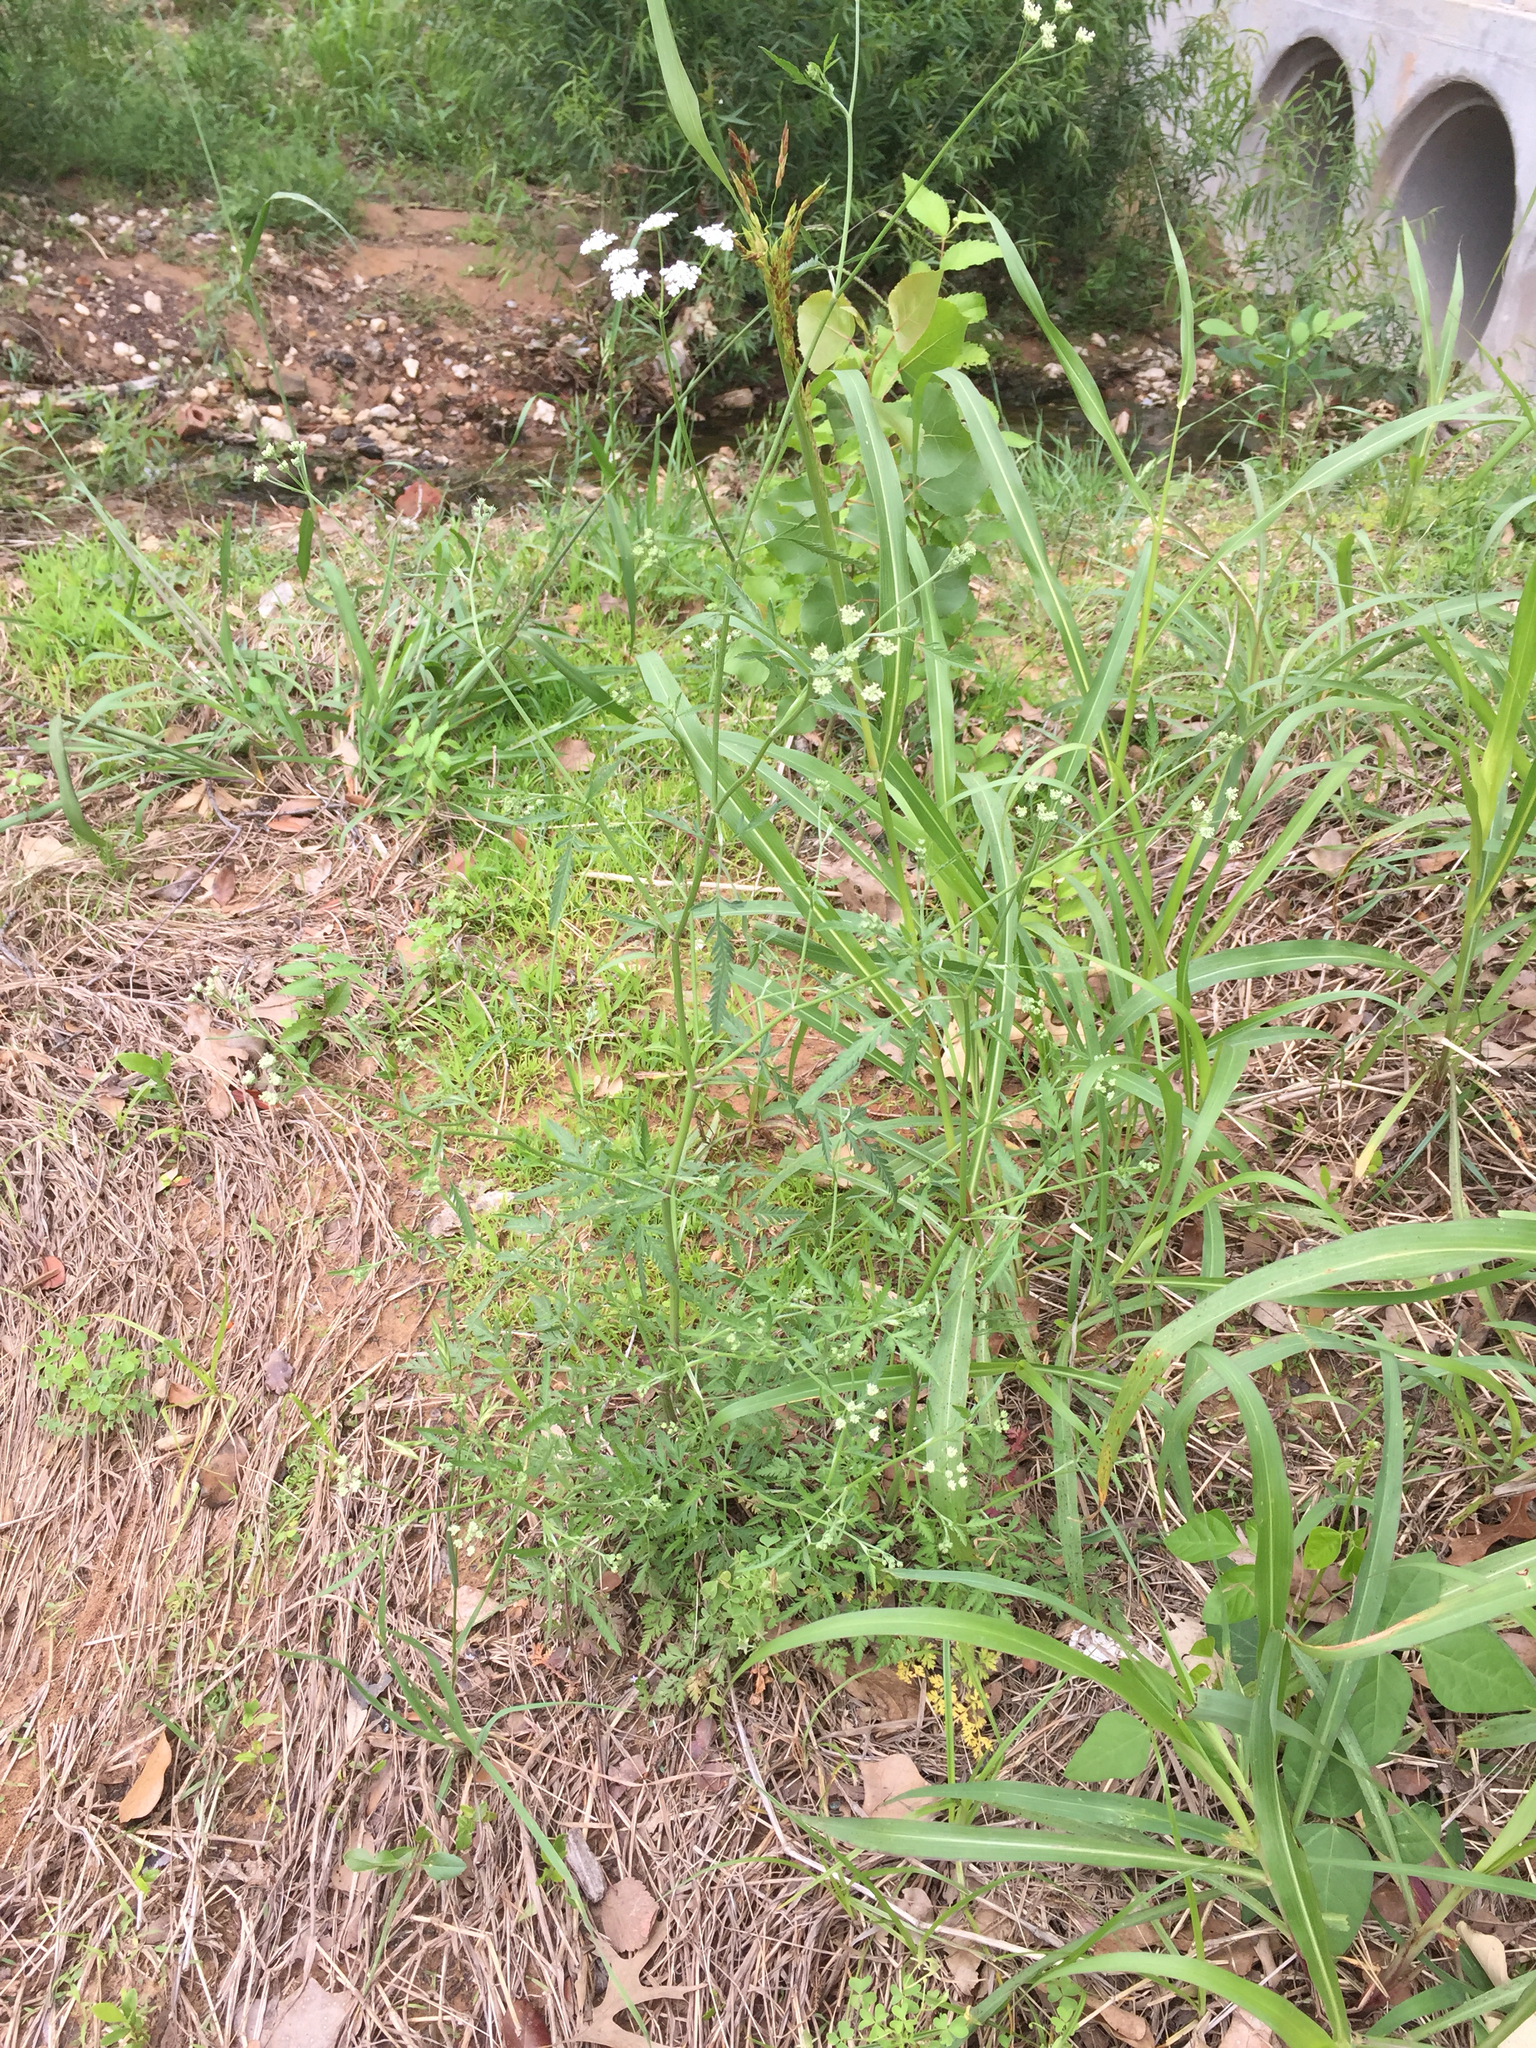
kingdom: Plantae
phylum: Tracheophyta
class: Magnoliopsida
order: Apiales
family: Apiaceae
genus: Torilis
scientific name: Torilis arvensis
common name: Spreading hedge-parsley
